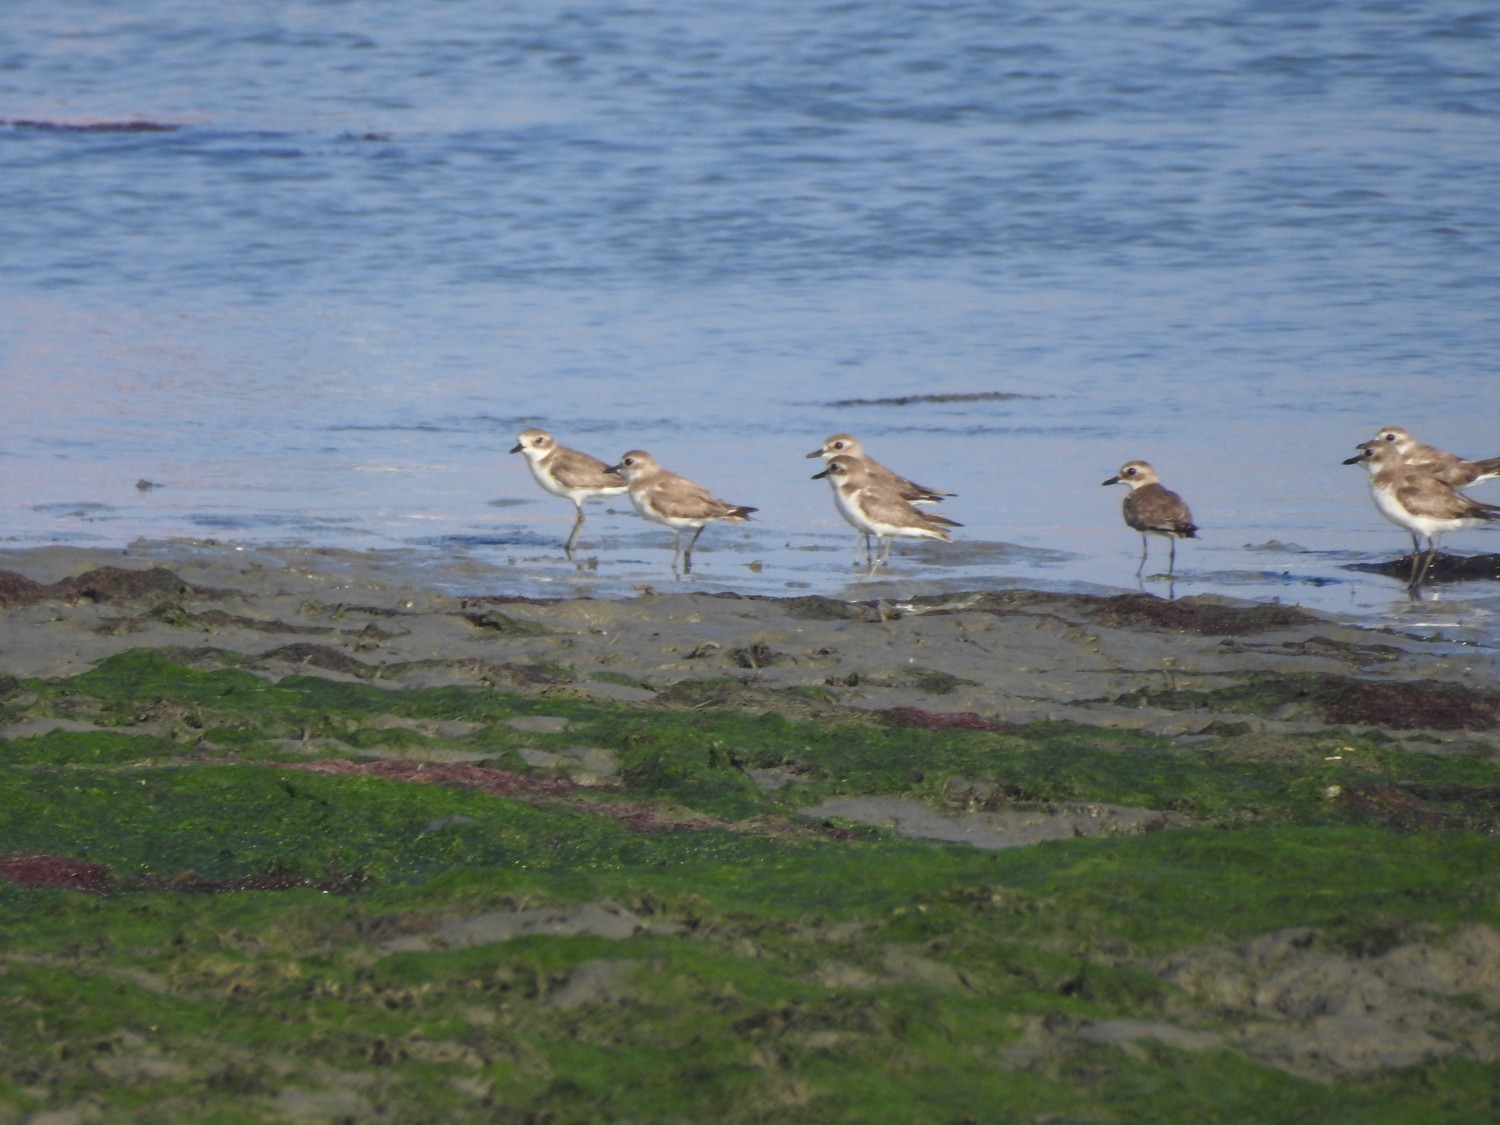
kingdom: Animalia
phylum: Chordata
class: Aves
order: Charadriiformes
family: Charadriidae
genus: Charadrius
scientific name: Charadrius leschenaultii
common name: Greater sand plover
